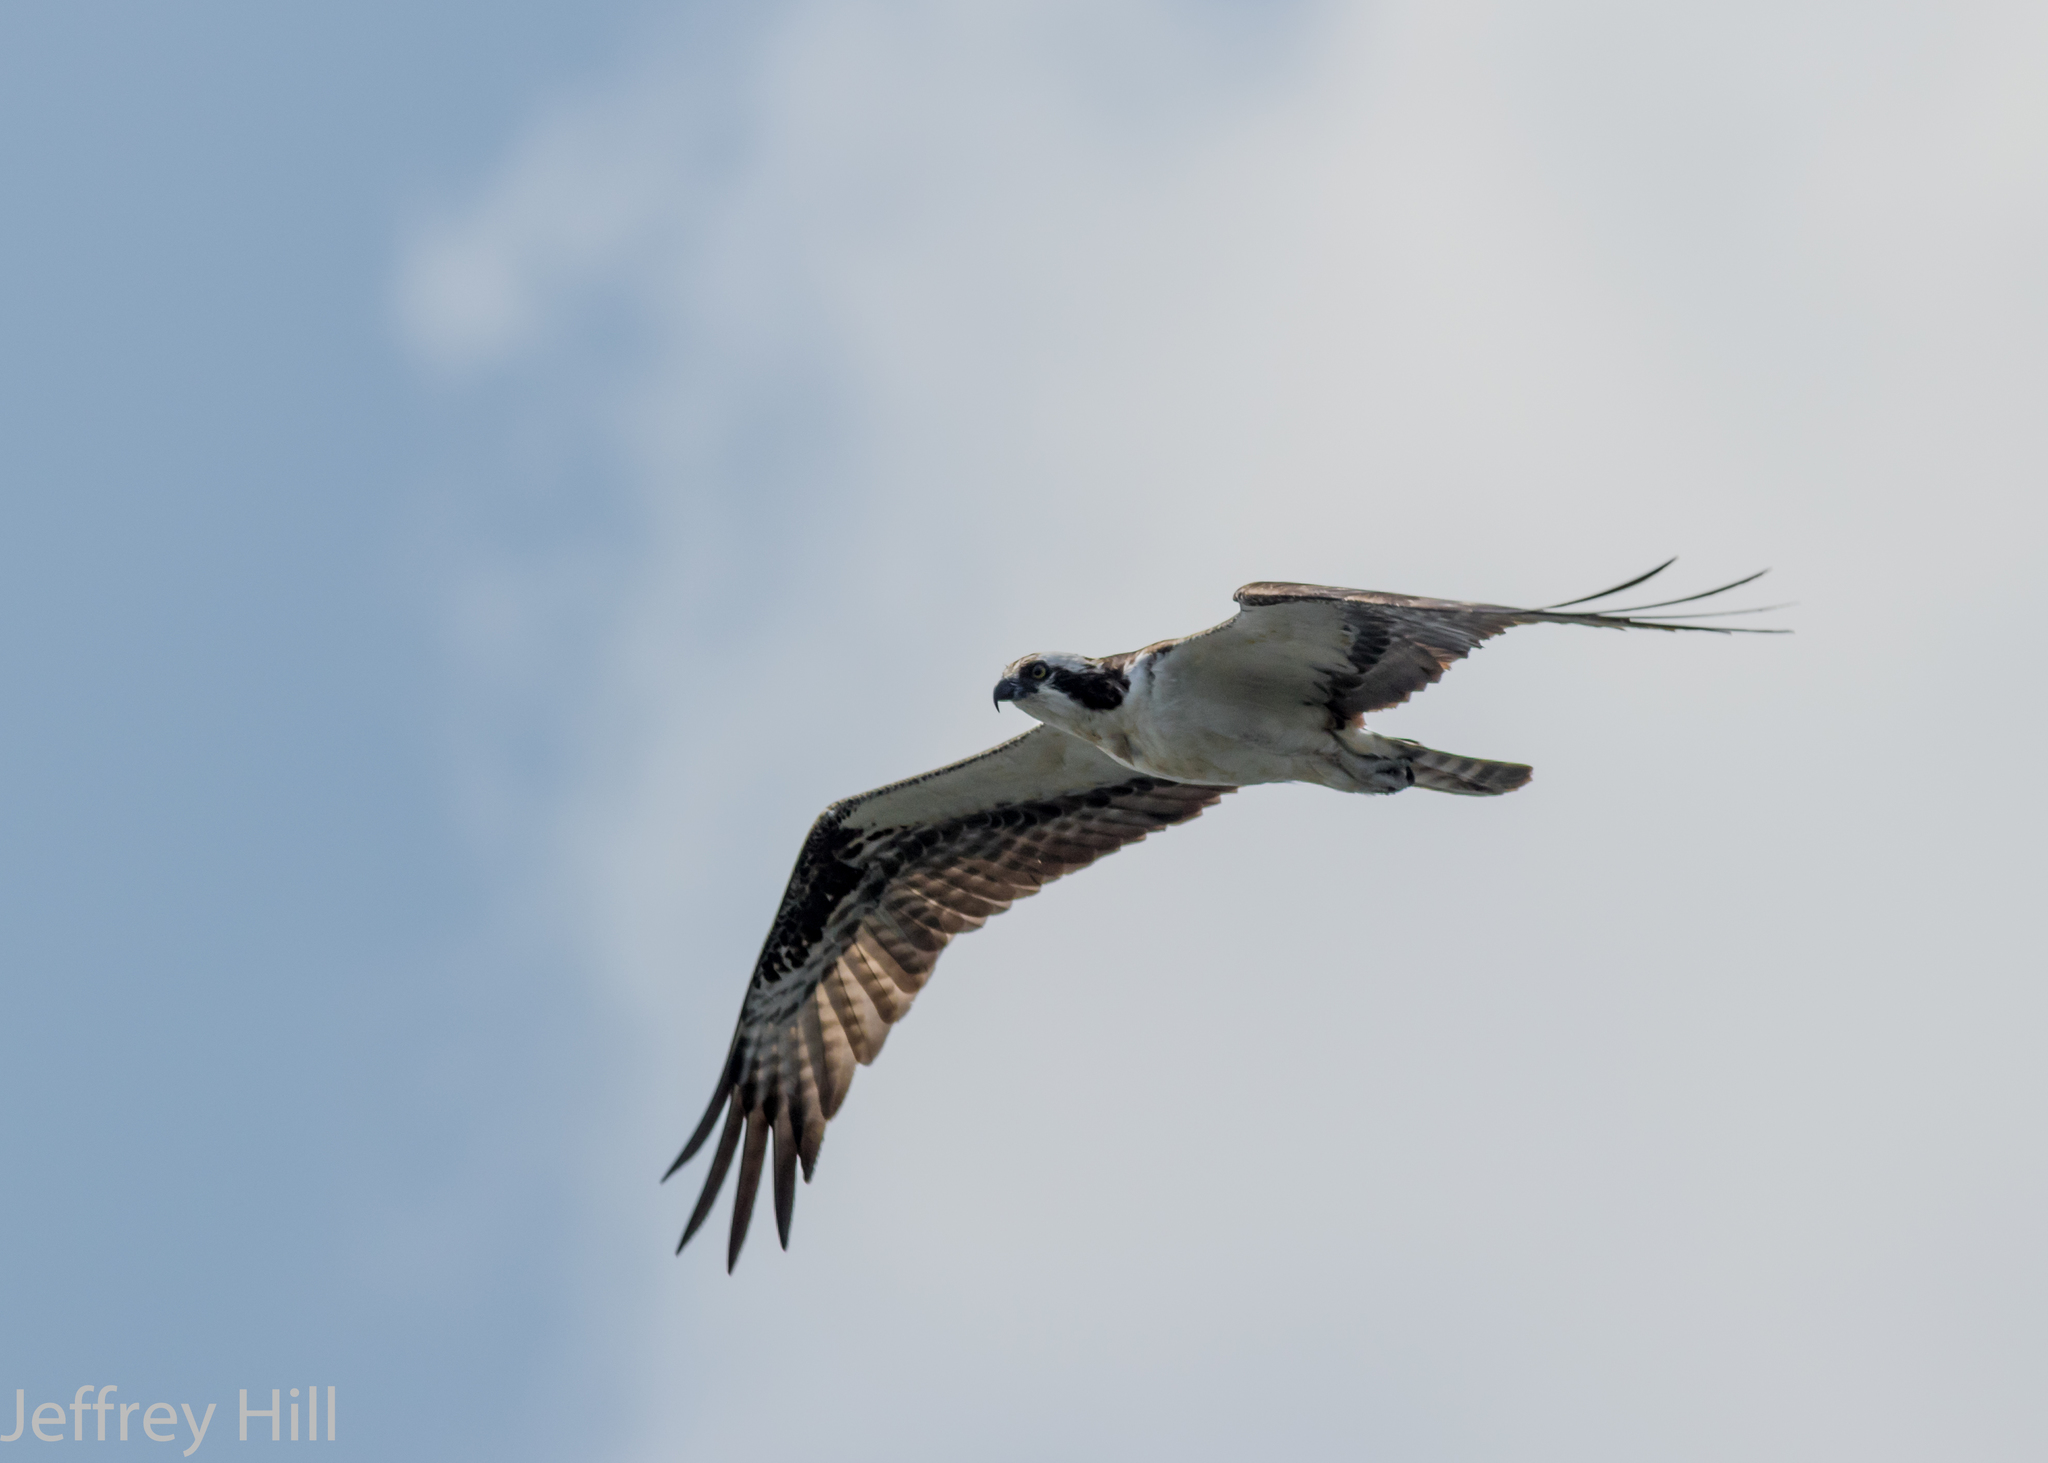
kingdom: Animalia
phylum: Chordata
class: Aves
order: Accipitriformes
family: Pandionidae
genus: Pandion
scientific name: Pandion haliaetus
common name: Osprey
